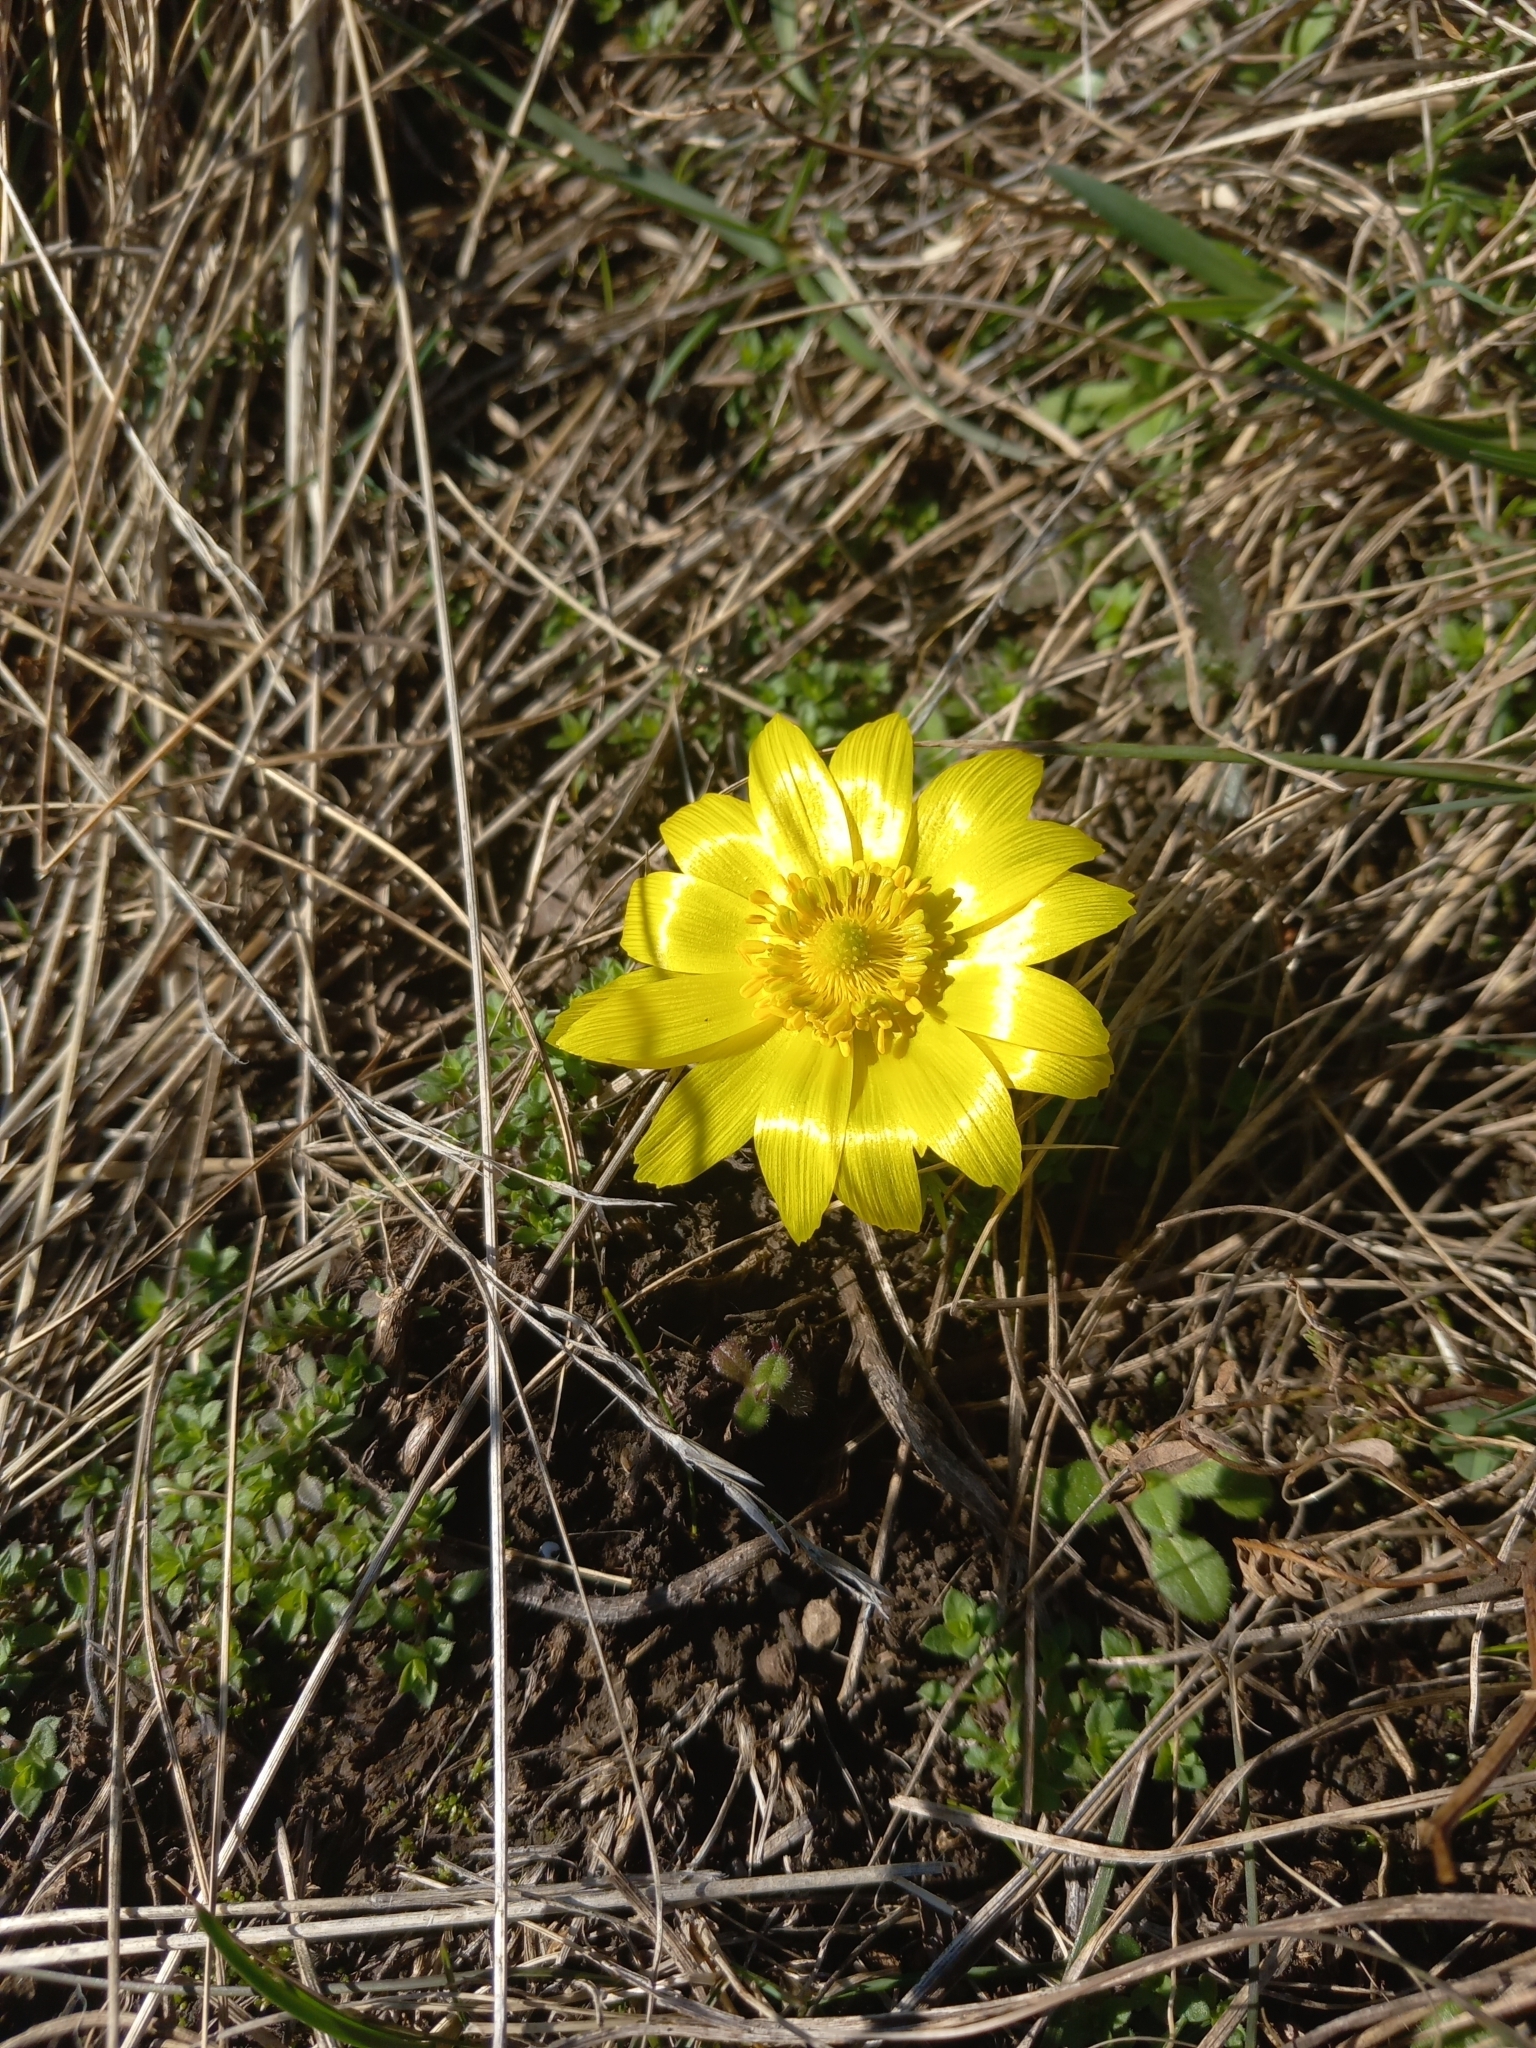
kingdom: Plantae
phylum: Tracheophyta
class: Magnoliopsida
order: Ranunculales
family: Ranunculaceae
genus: Adonis
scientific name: Adonis vernalis
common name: Yellow pheasants-eye
